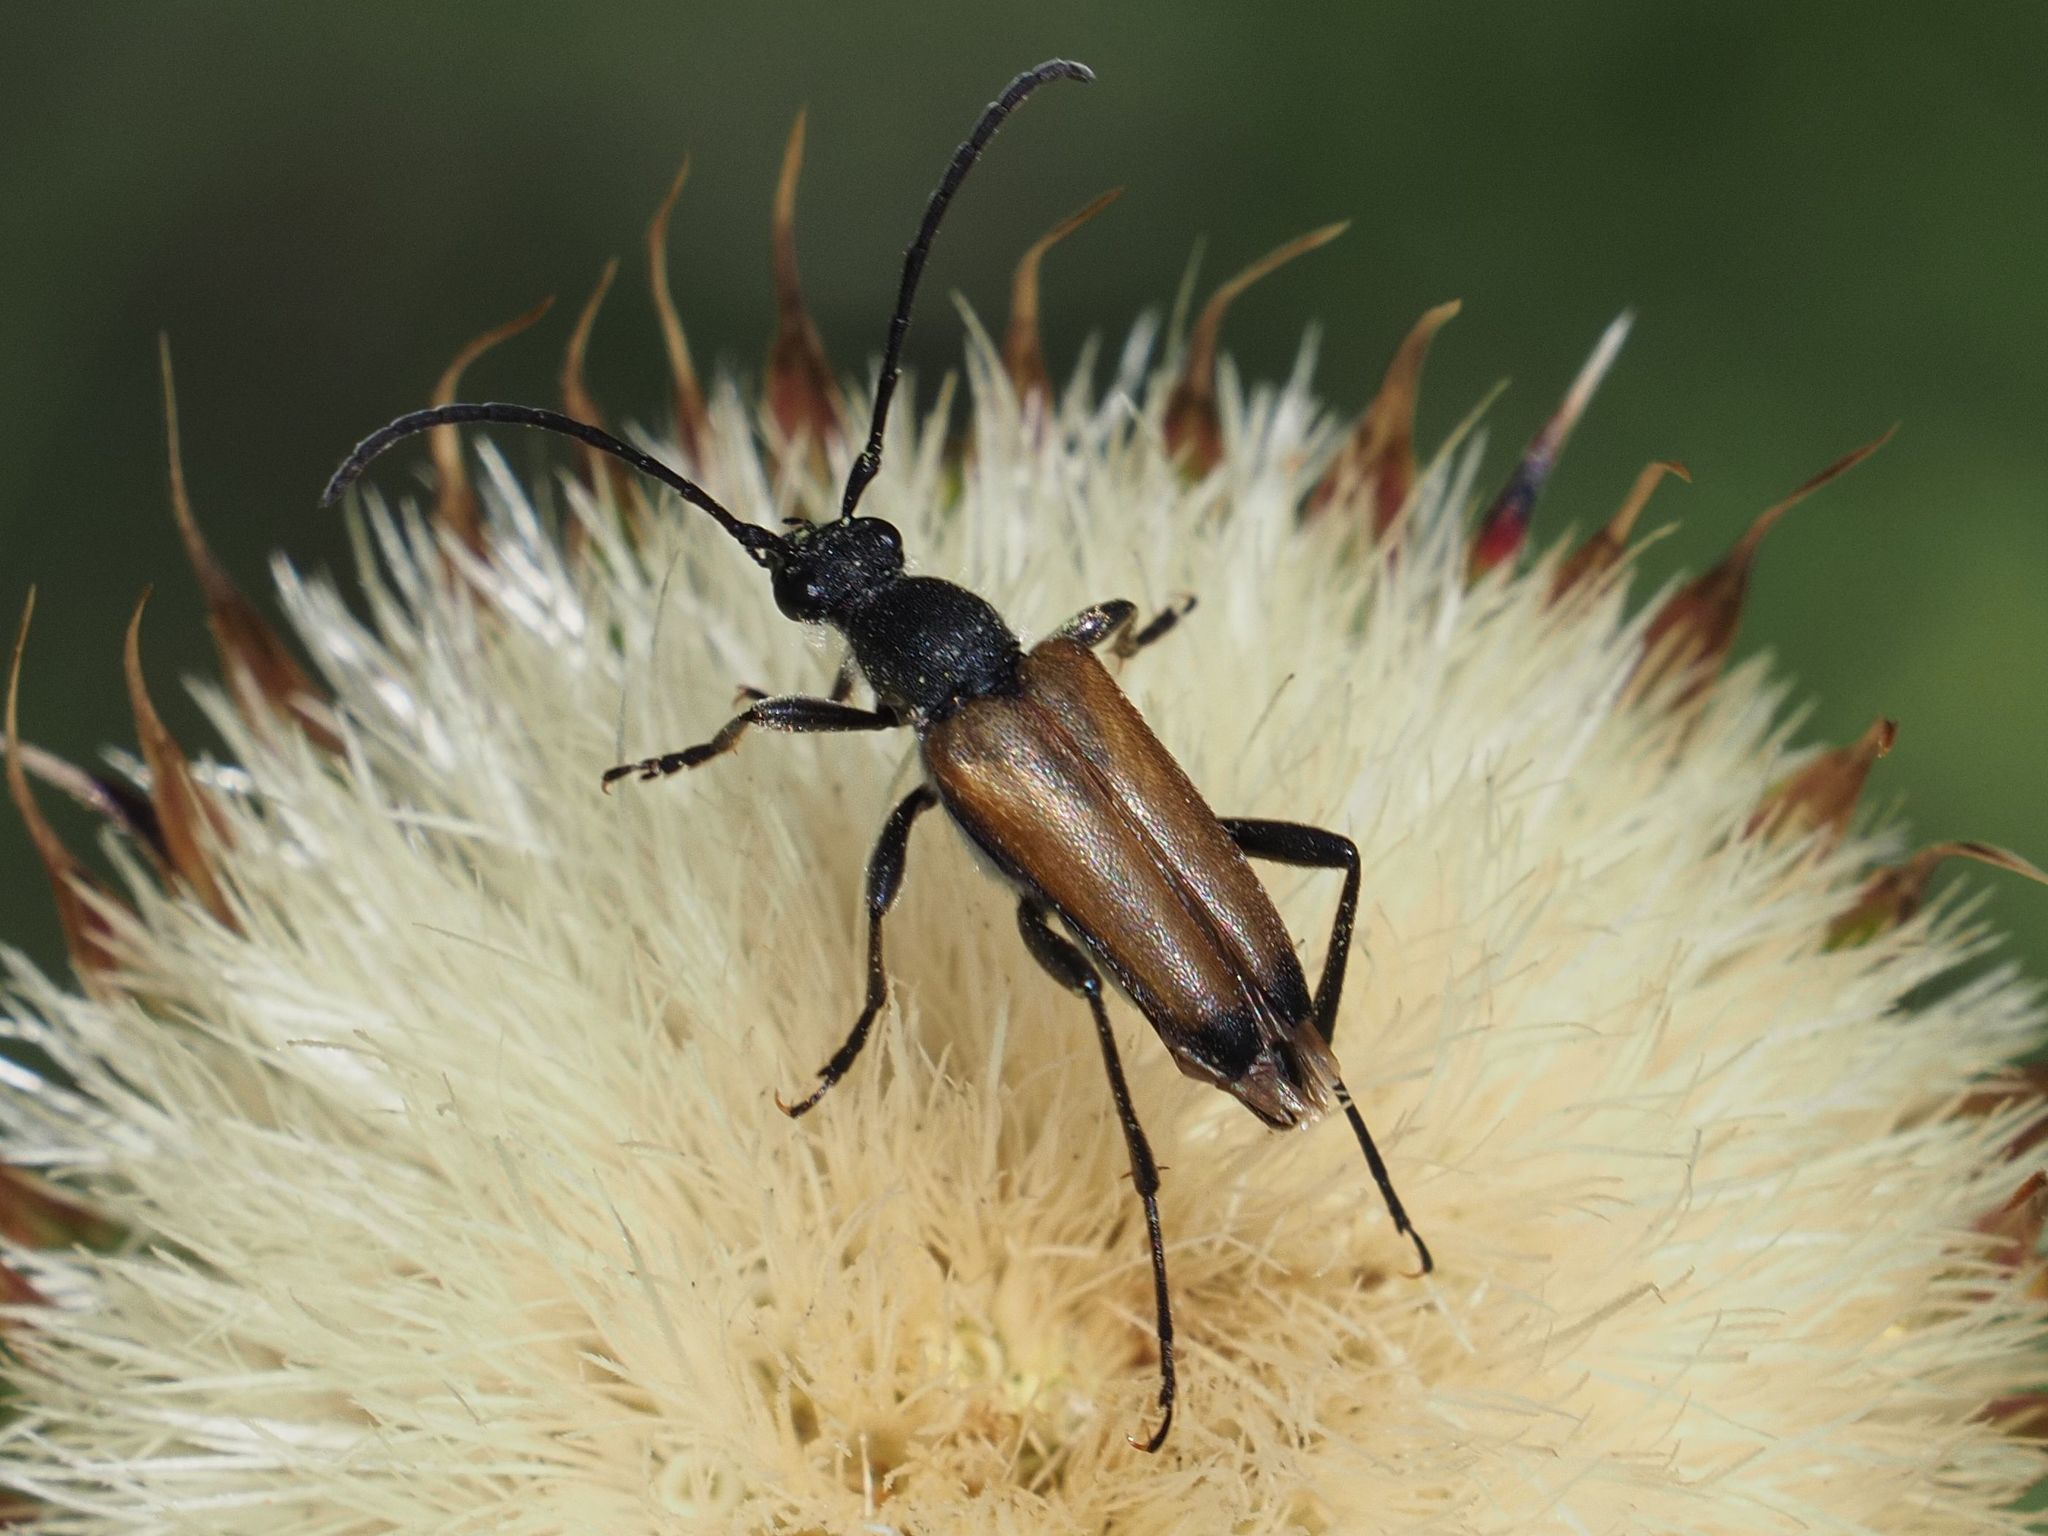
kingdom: Animalia
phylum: Arthropoda
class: Insecta
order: Coleoptera
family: Cerambycidae
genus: Anastrangalia
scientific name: Anastrangalia sanguinolenta
